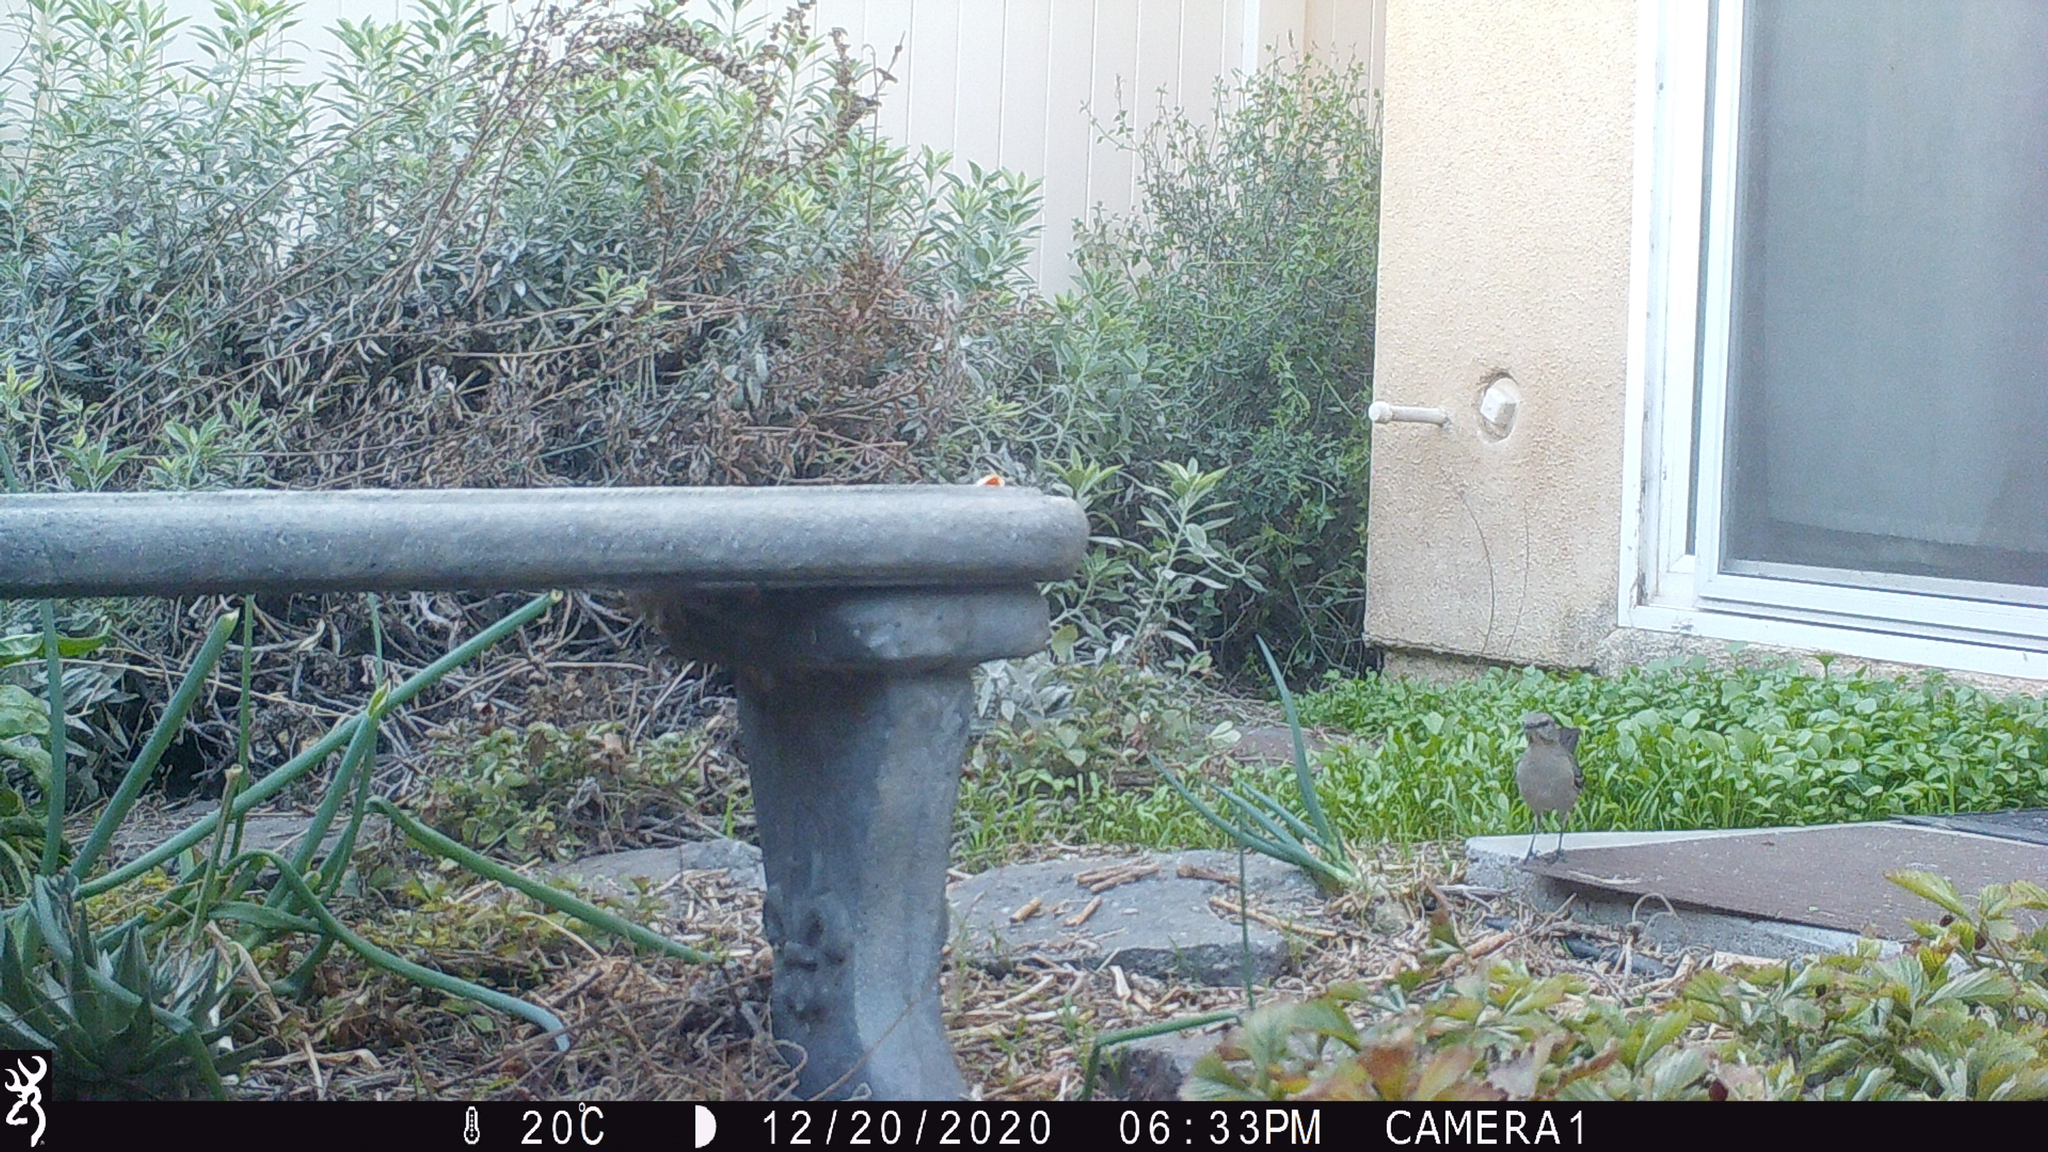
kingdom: Animalia
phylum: Chordata
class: Aves
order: Passeriformes
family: Mimidae
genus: Mimus
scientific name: Mimus polyglottos
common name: Northern mockingbird
